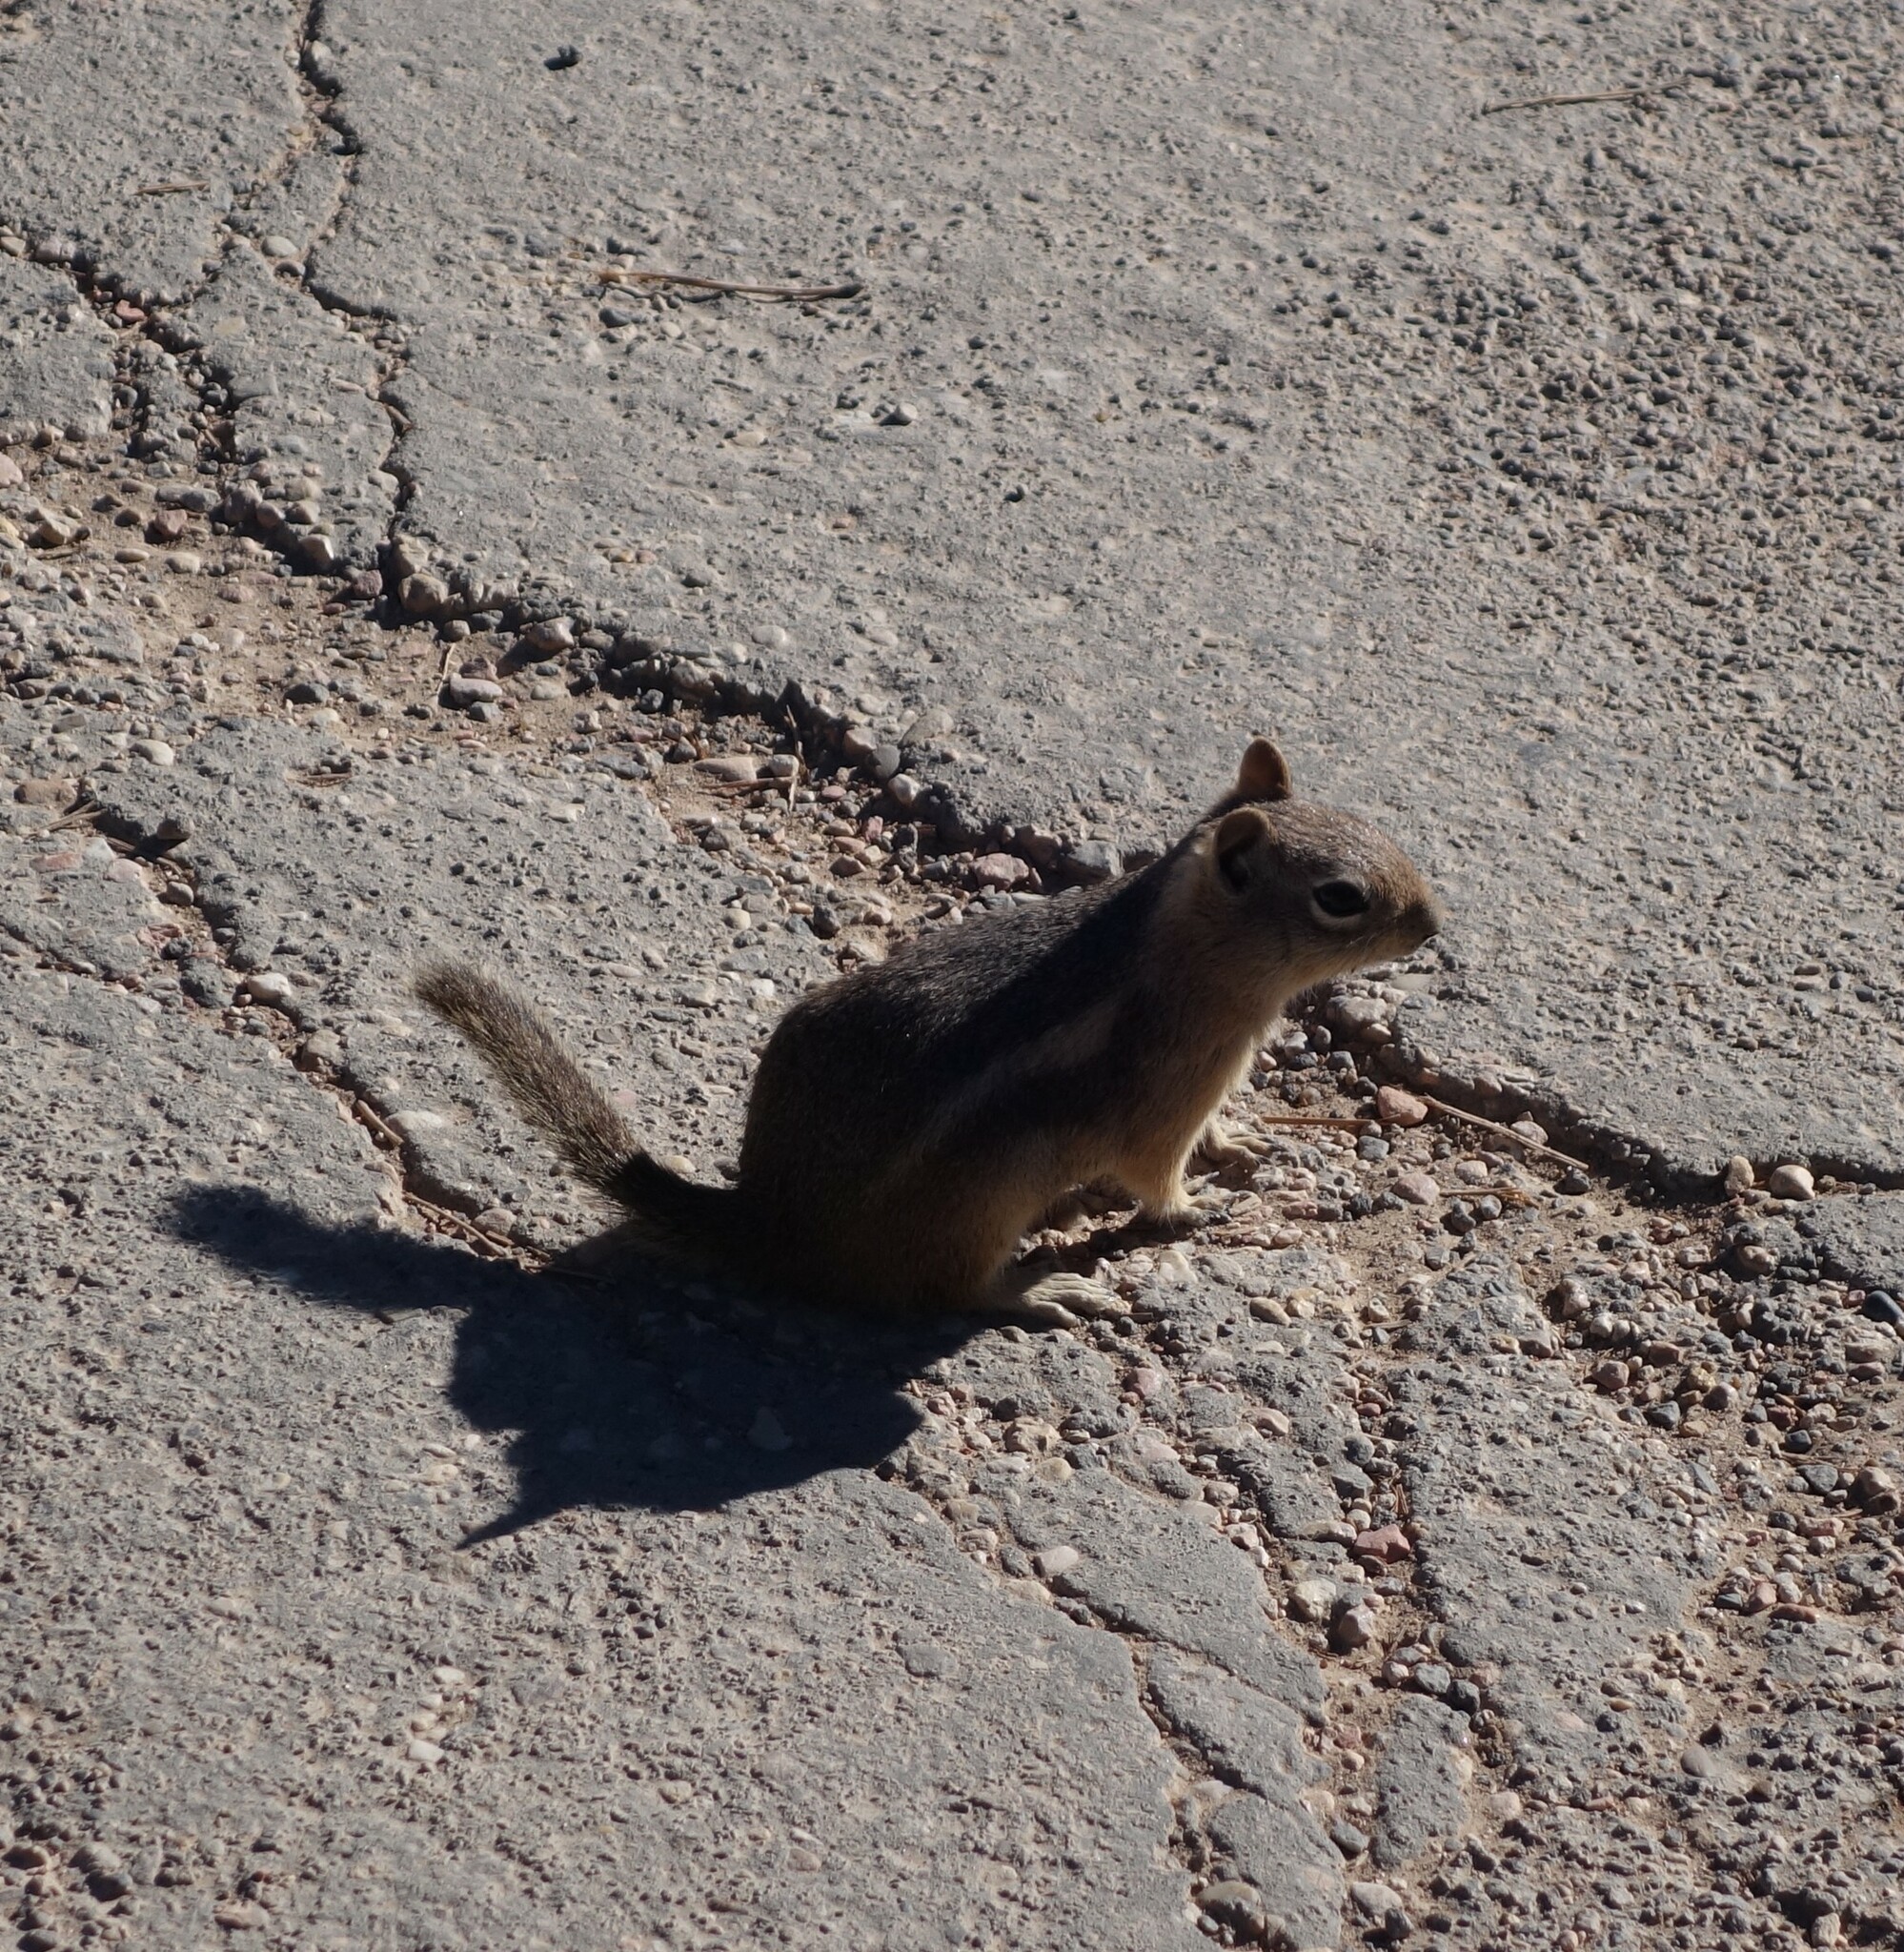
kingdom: Animalia
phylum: Chordata
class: Mammalia
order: Rodentia
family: Sciuridae
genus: Callospermophilus
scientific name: Callospermophilus lateralis
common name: Golden-mantled ground squirrel
